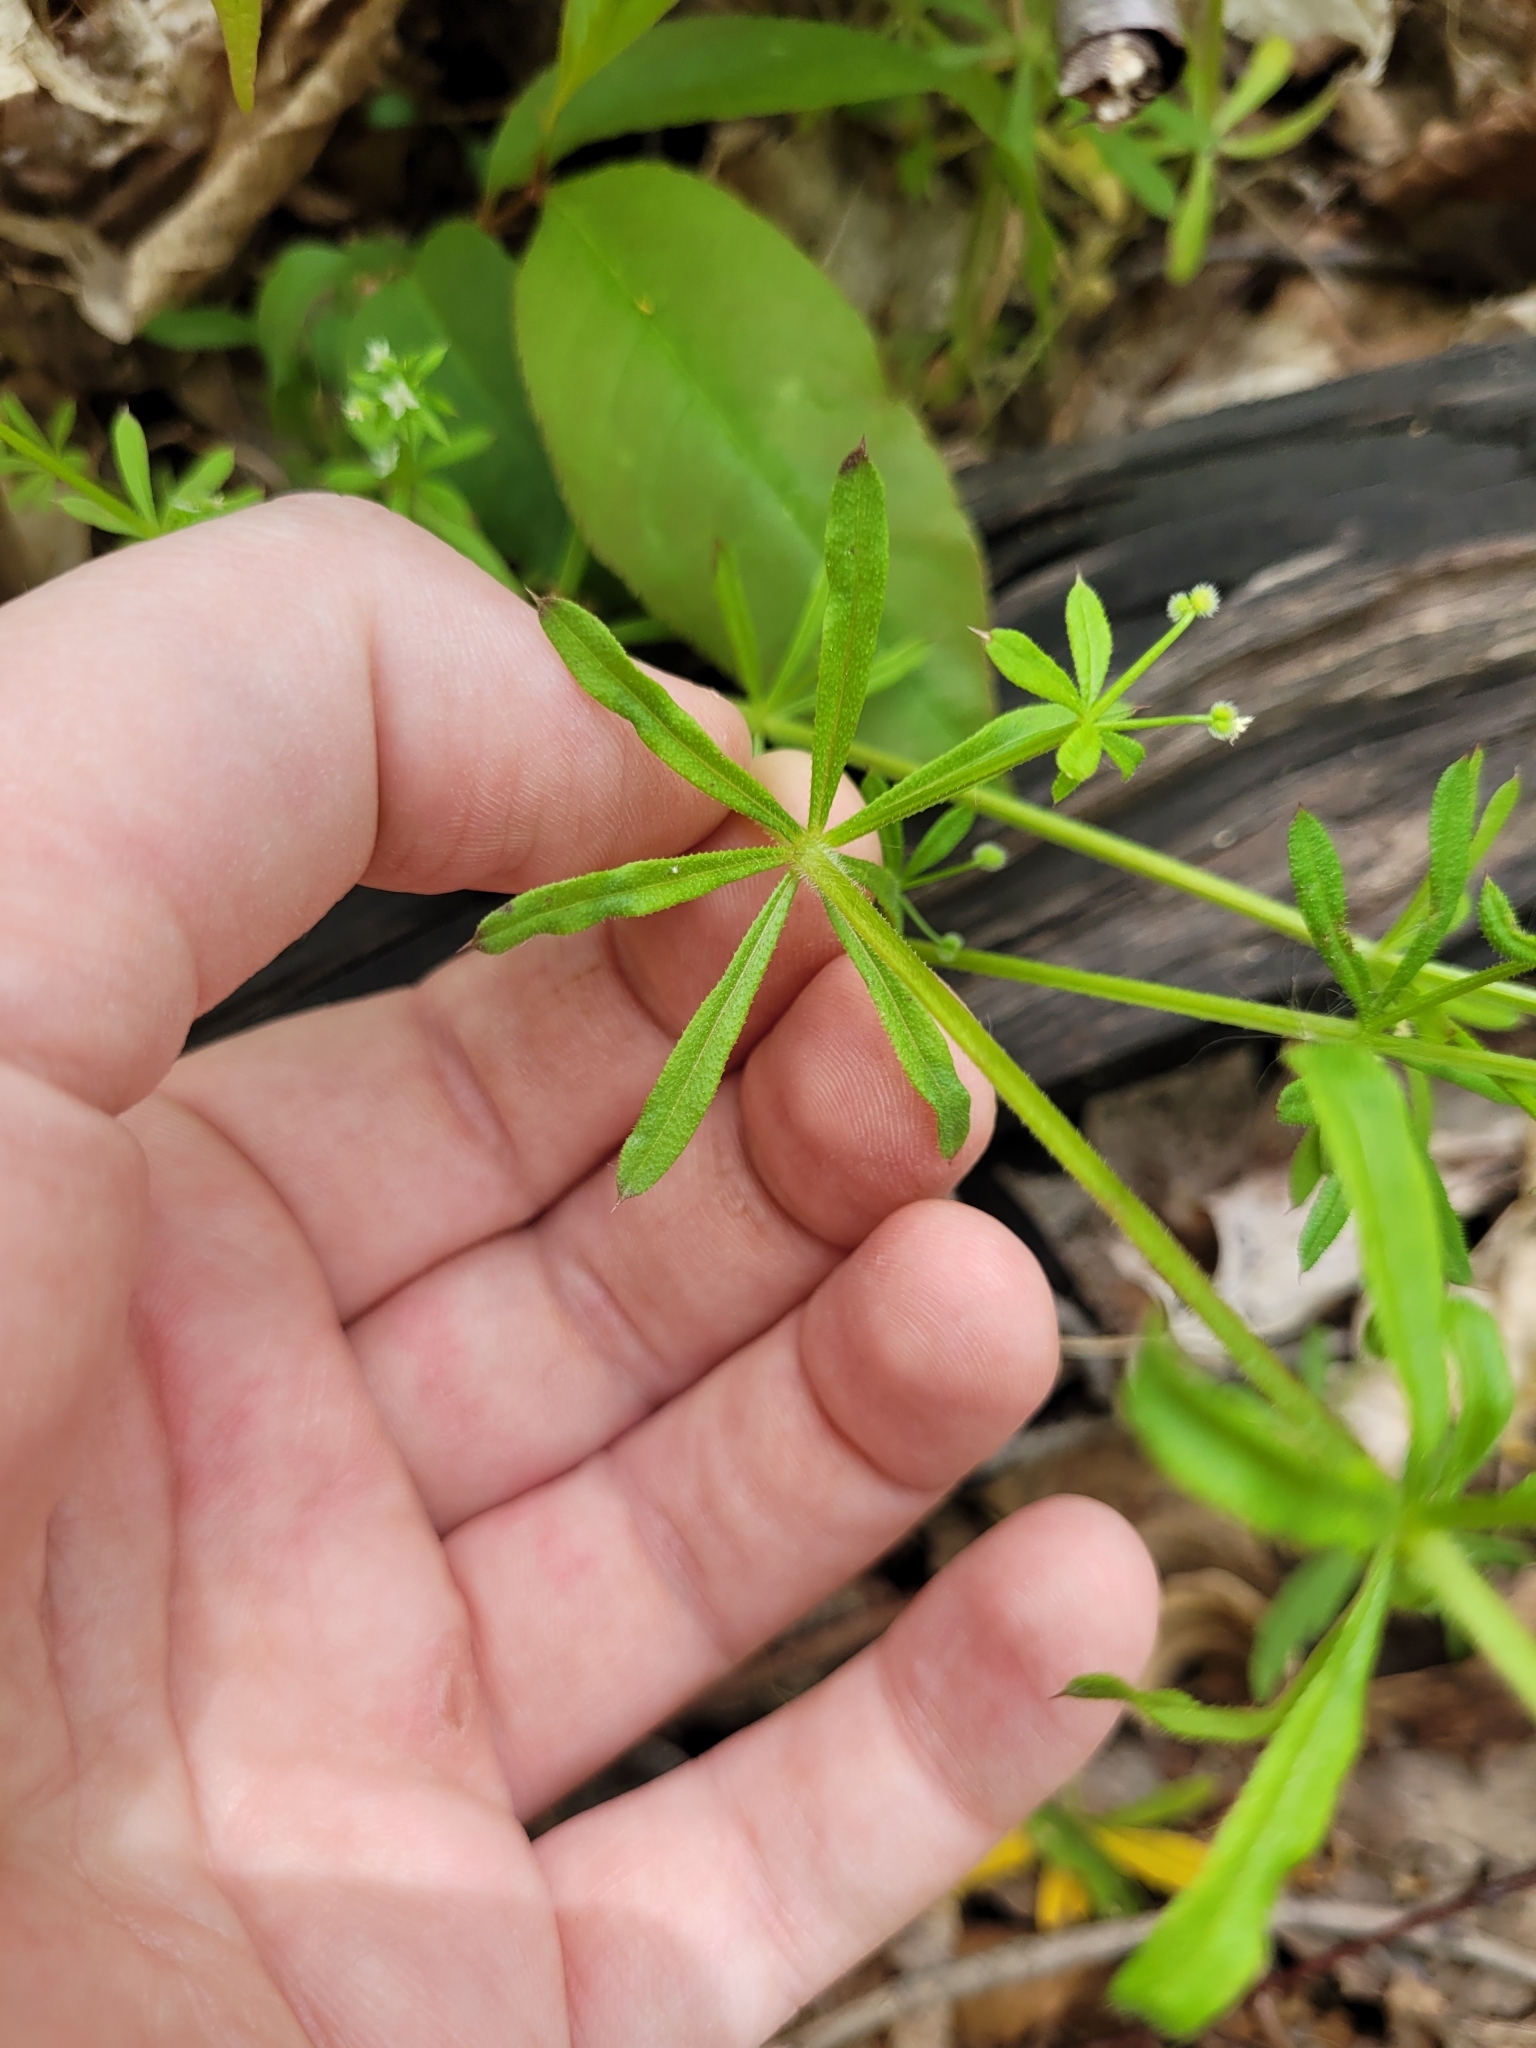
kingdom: Plantae
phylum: Tracheophyta
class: Magnoliopsida
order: Gentianales
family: Rubiaceae
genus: Galium
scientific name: Galium aparine
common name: Cleavers
